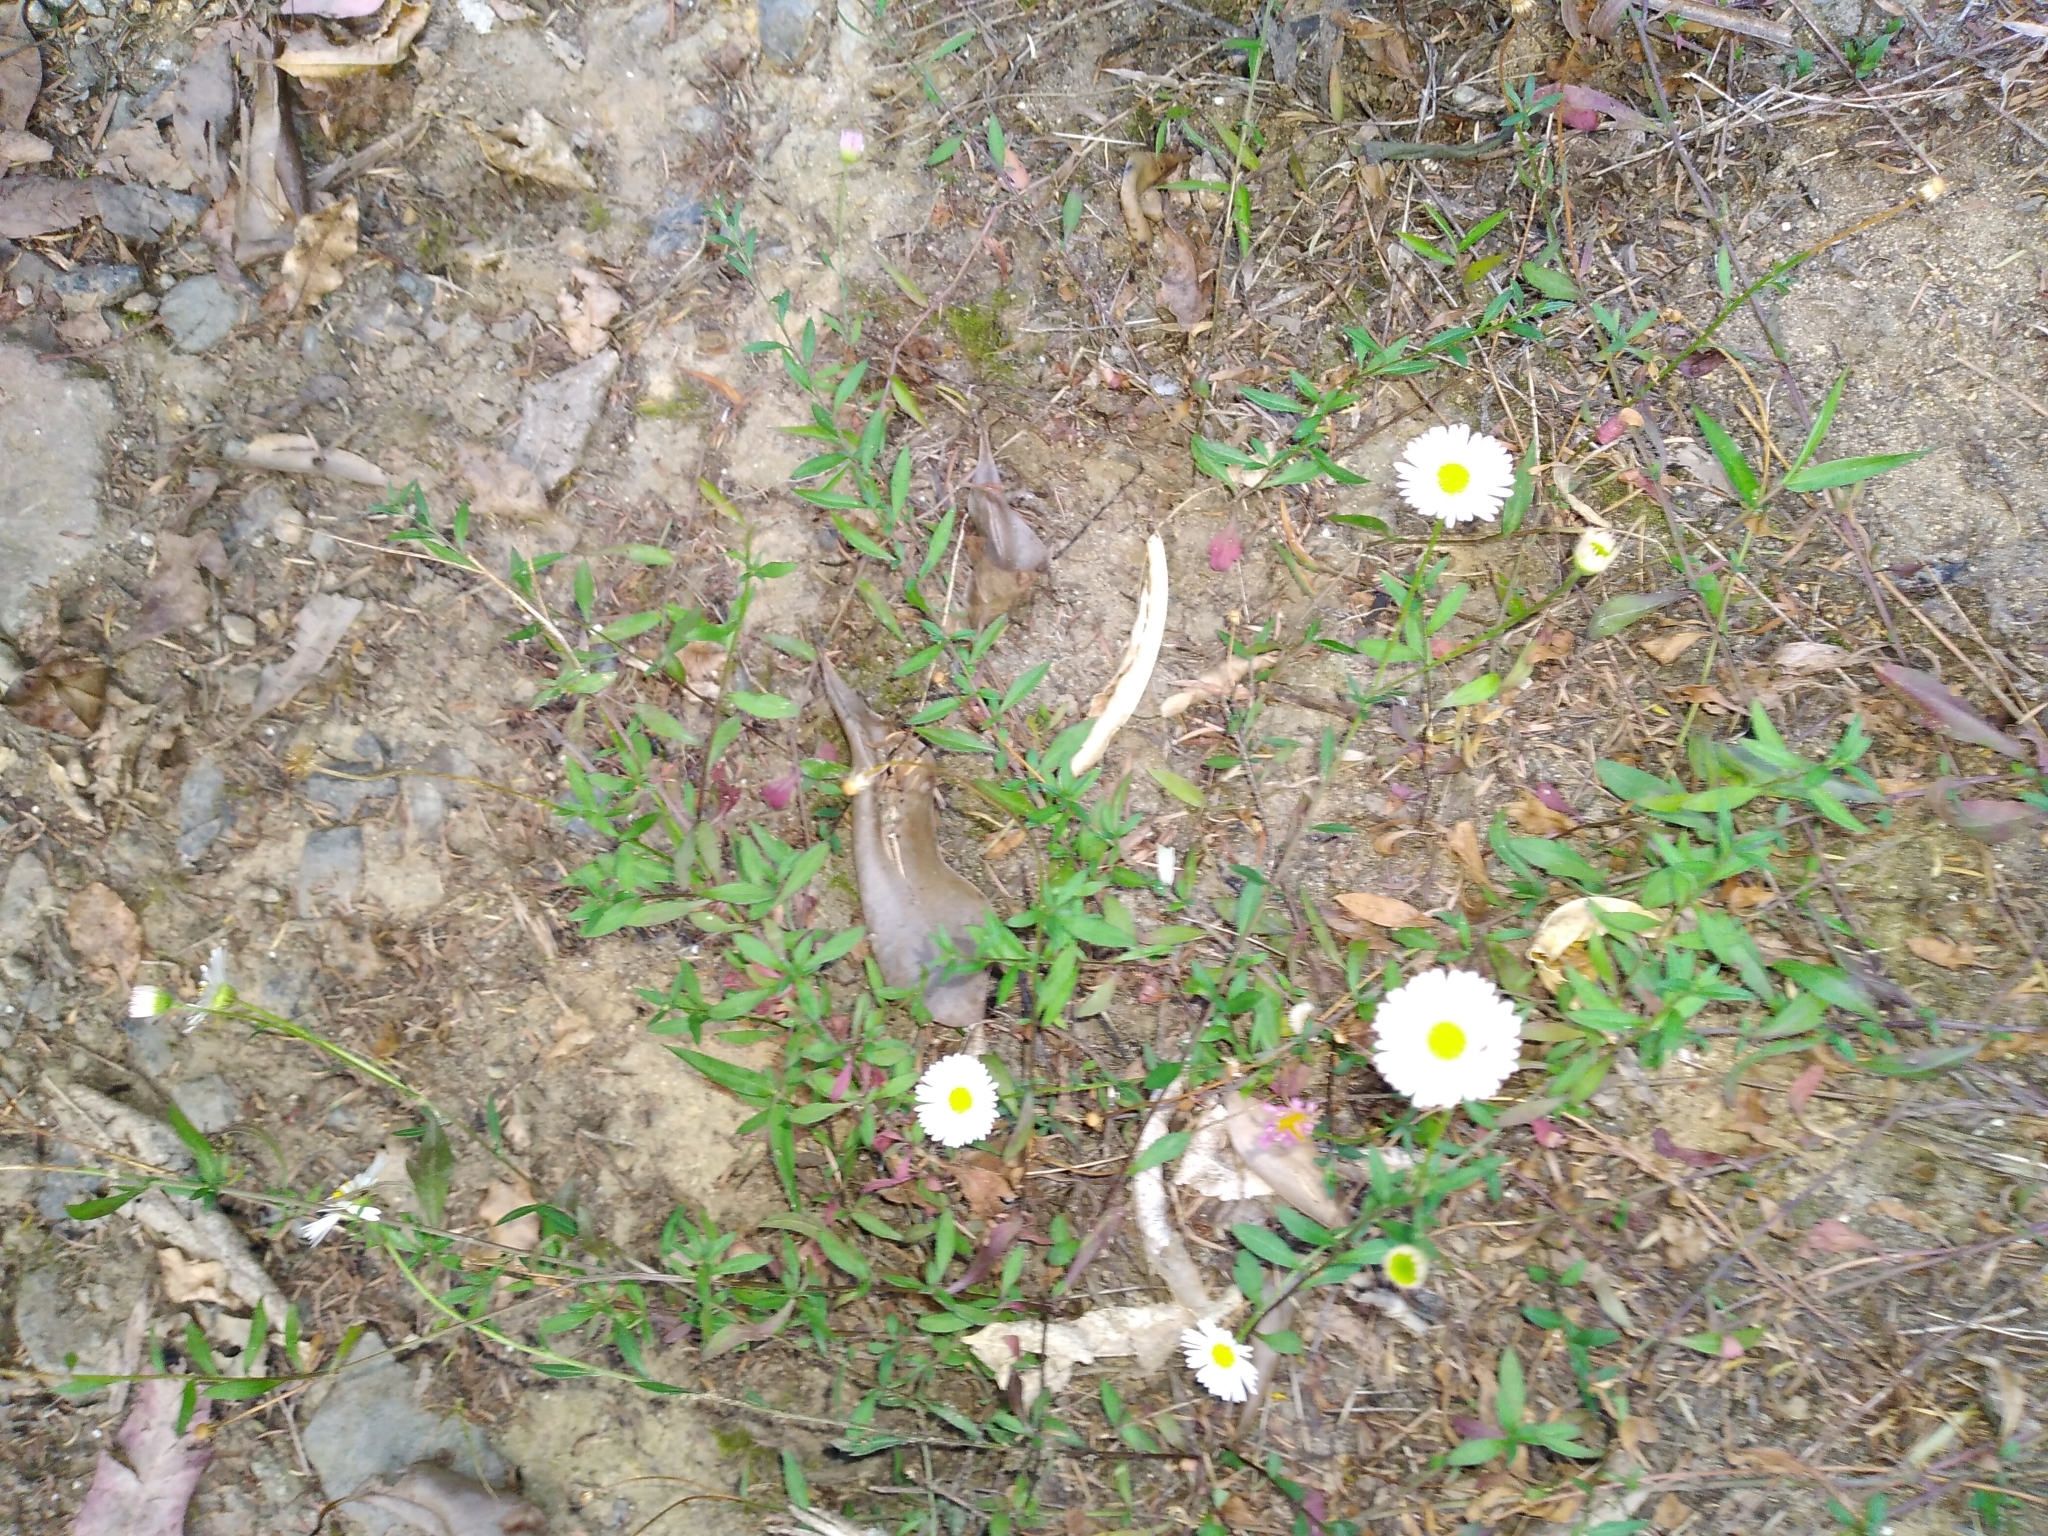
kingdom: Plantae
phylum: Tracheophyta
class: Magnoliopsida
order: Asterales
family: Asteraceae
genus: Erigeron
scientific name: Erigeron karvinskianus
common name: Mexican fleabane
